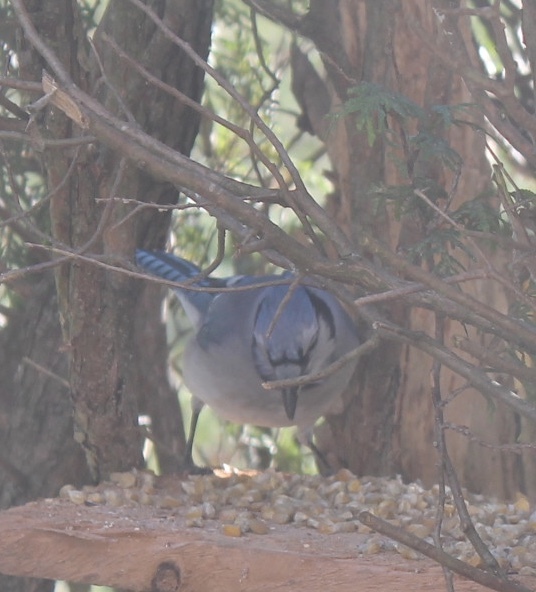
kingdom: Animalia
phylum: Chordata
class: Aves
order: Passeriformes
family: Corvidae
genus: Cyanocitta
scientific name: Cyanocitta cristata
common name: Blue jay
